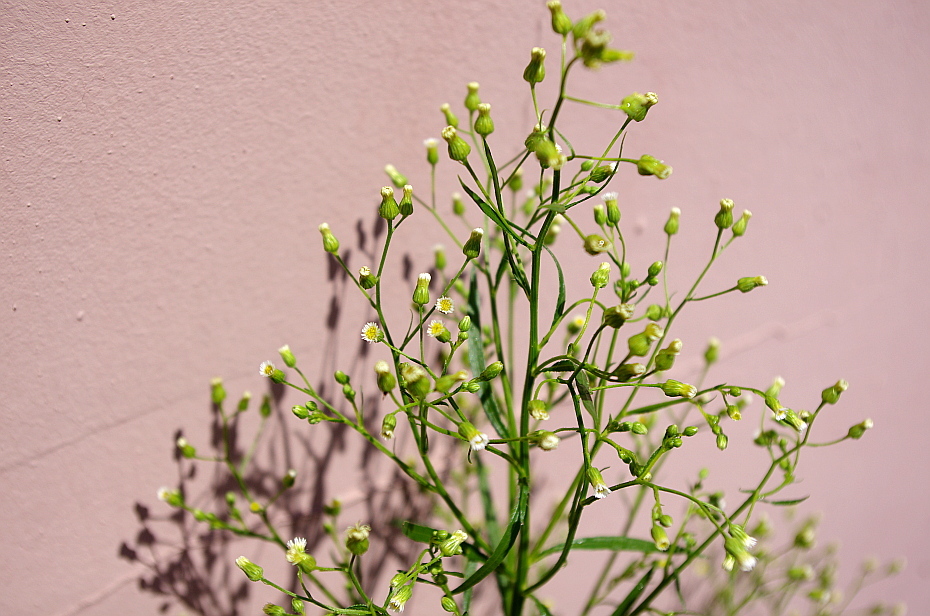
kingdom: Plantae
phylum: Tracheophyta
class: Magnoliopsida
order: Asterales
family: Asteraceae
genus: Erigeron
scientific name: Erigeron canadensis
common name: Canadian fleabane
